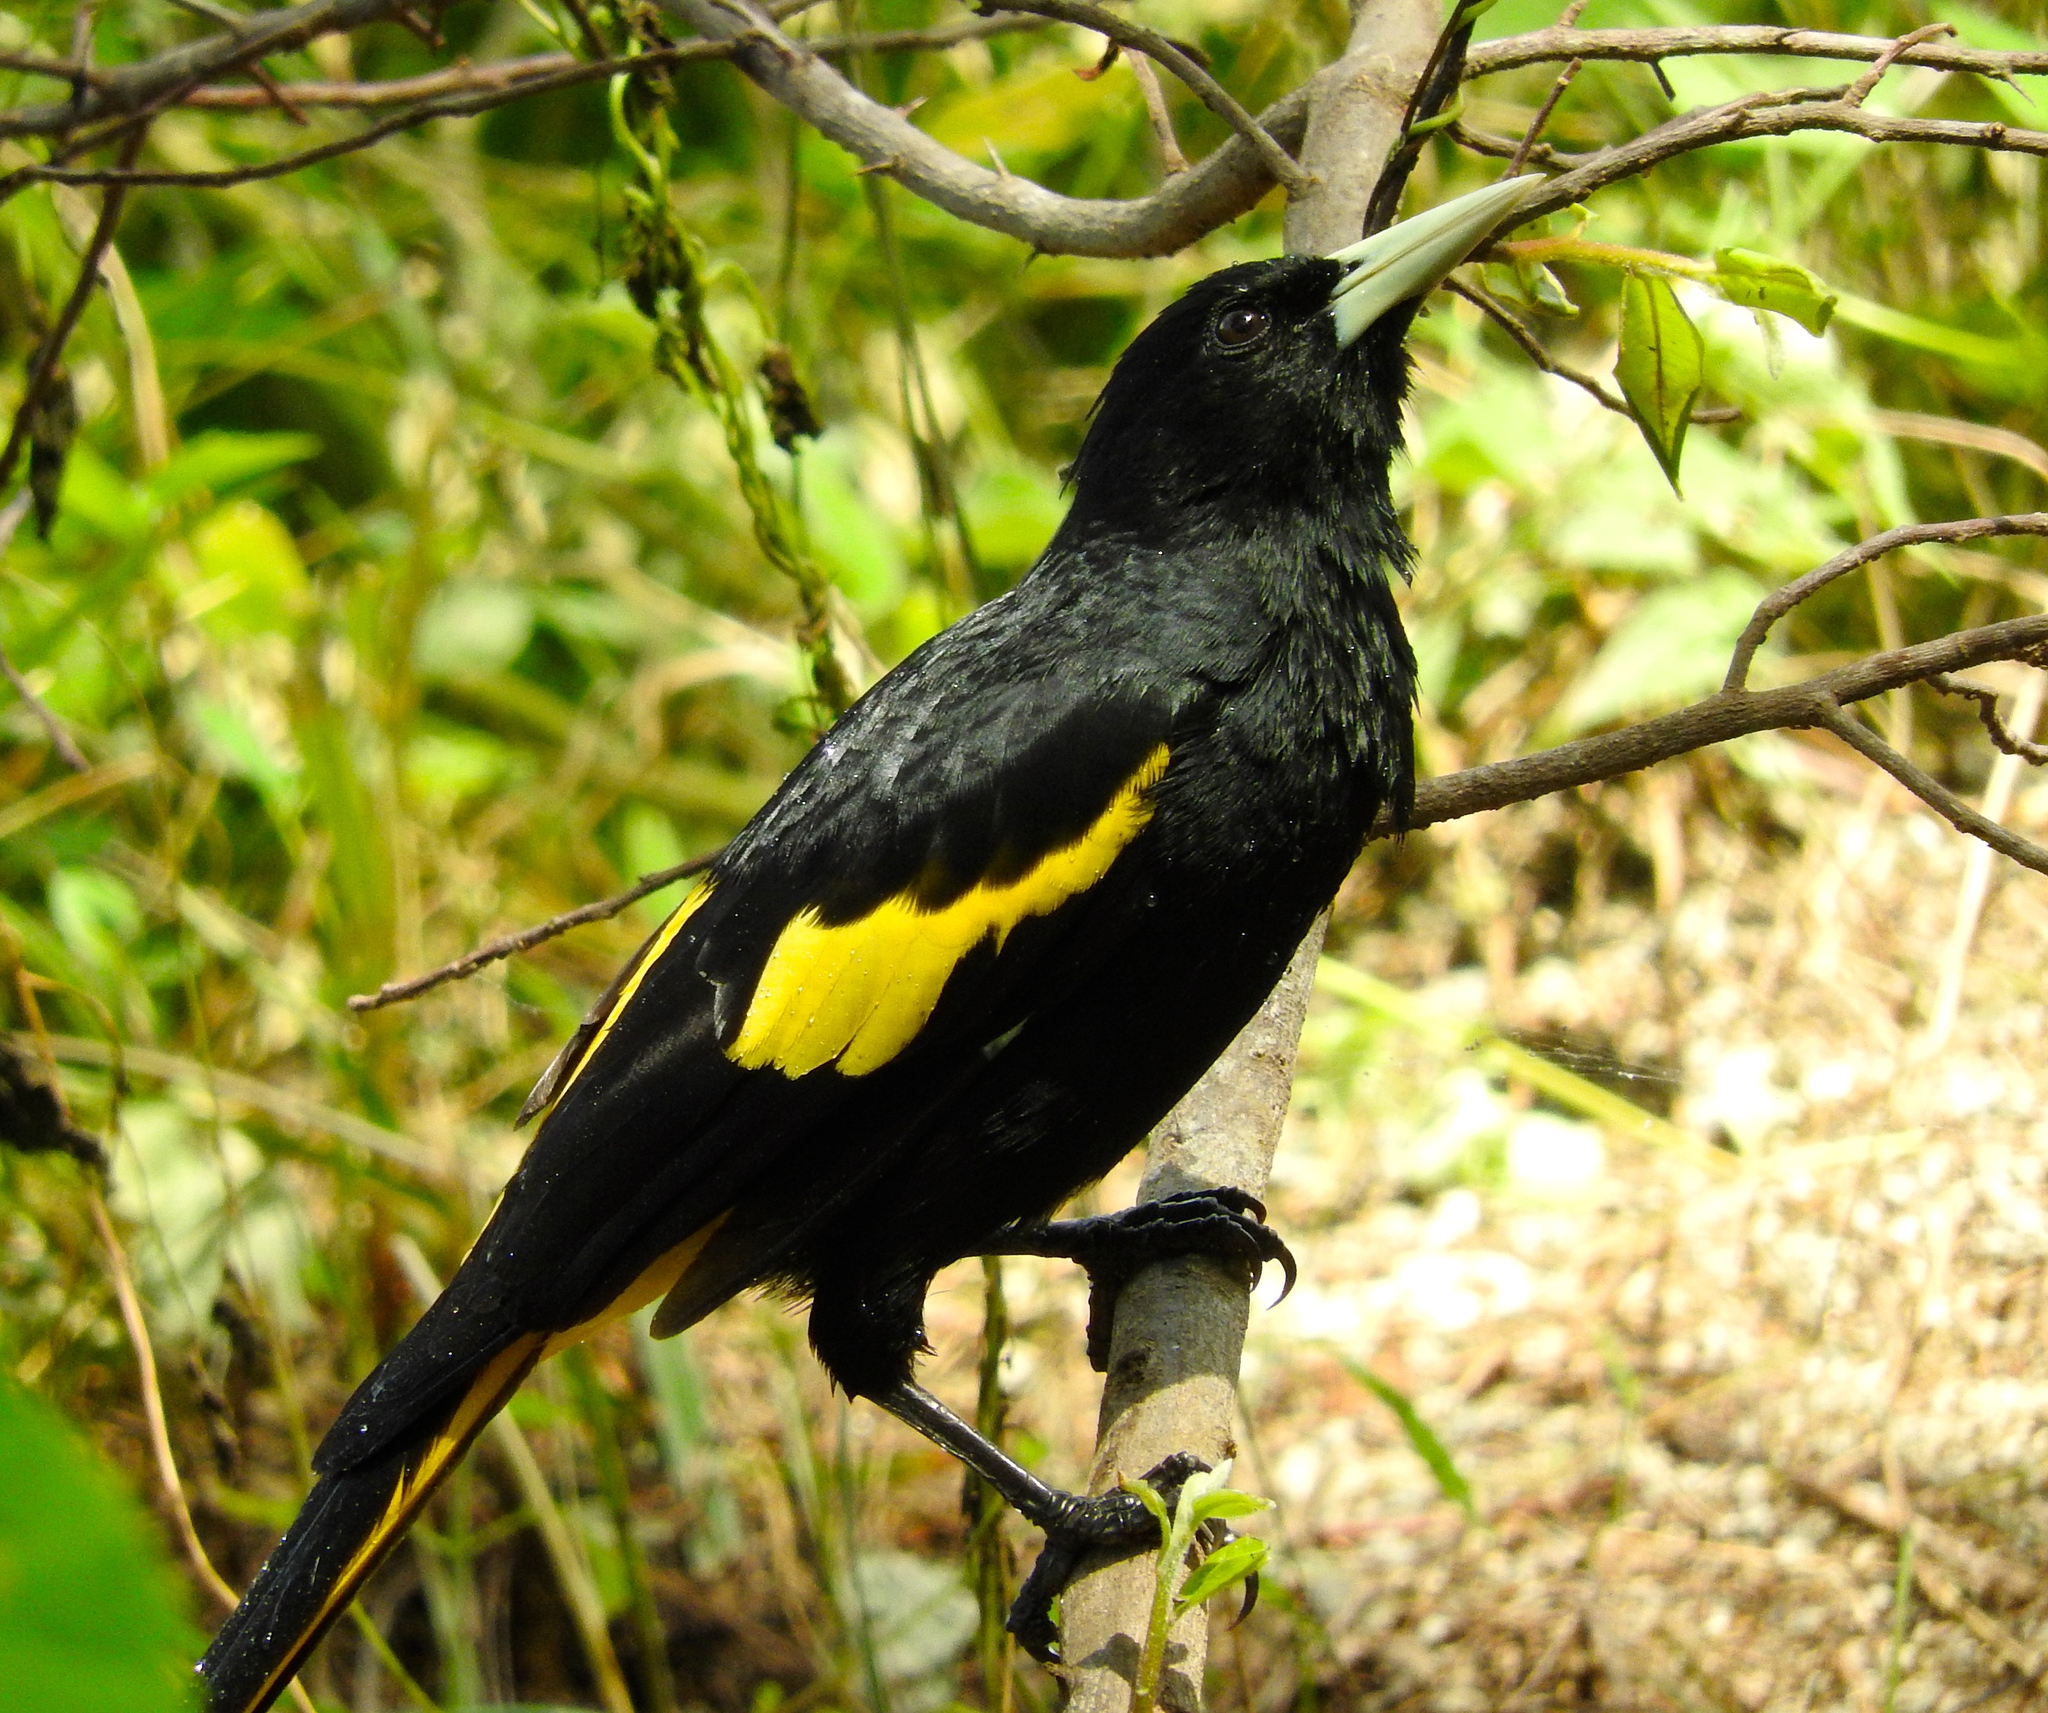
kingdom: Animalia
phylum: Chordata
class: Aves
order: Passeriformes
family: Icteridae
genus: Cacicus
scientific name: Cacicus melanicterus
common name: Yellow-winged cacique
